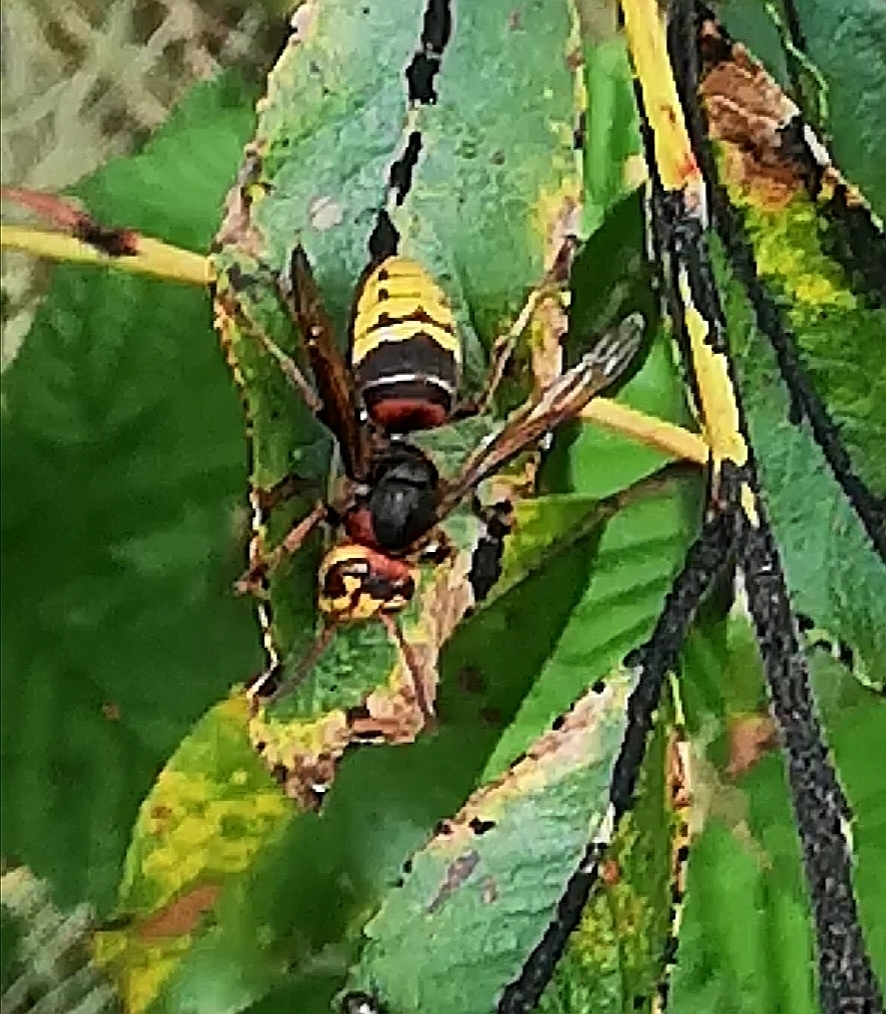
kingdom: Animalia
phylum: Arthropoda
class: Insecta
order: Hymenoptera
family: Vespidae
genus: Vespa
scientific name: Vespa crabro
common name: Hornet
